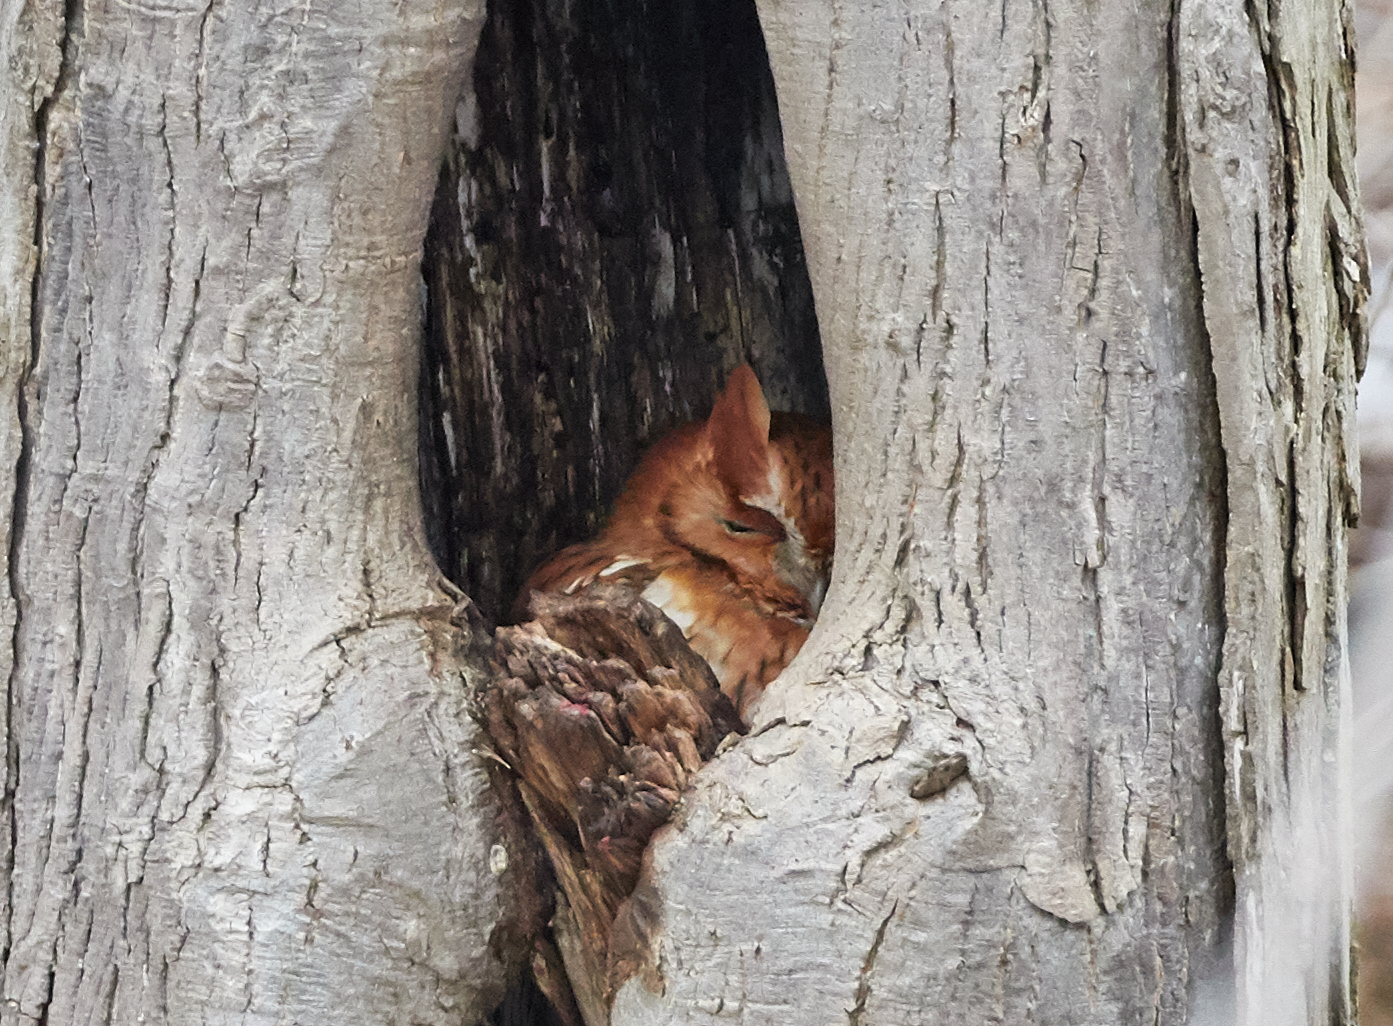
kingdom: Animalia
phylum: Chordata
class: Aves
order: Strigiformes
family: Strigidae
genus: Megascops
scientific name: Megascops asio
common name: Eastern screech-owl
